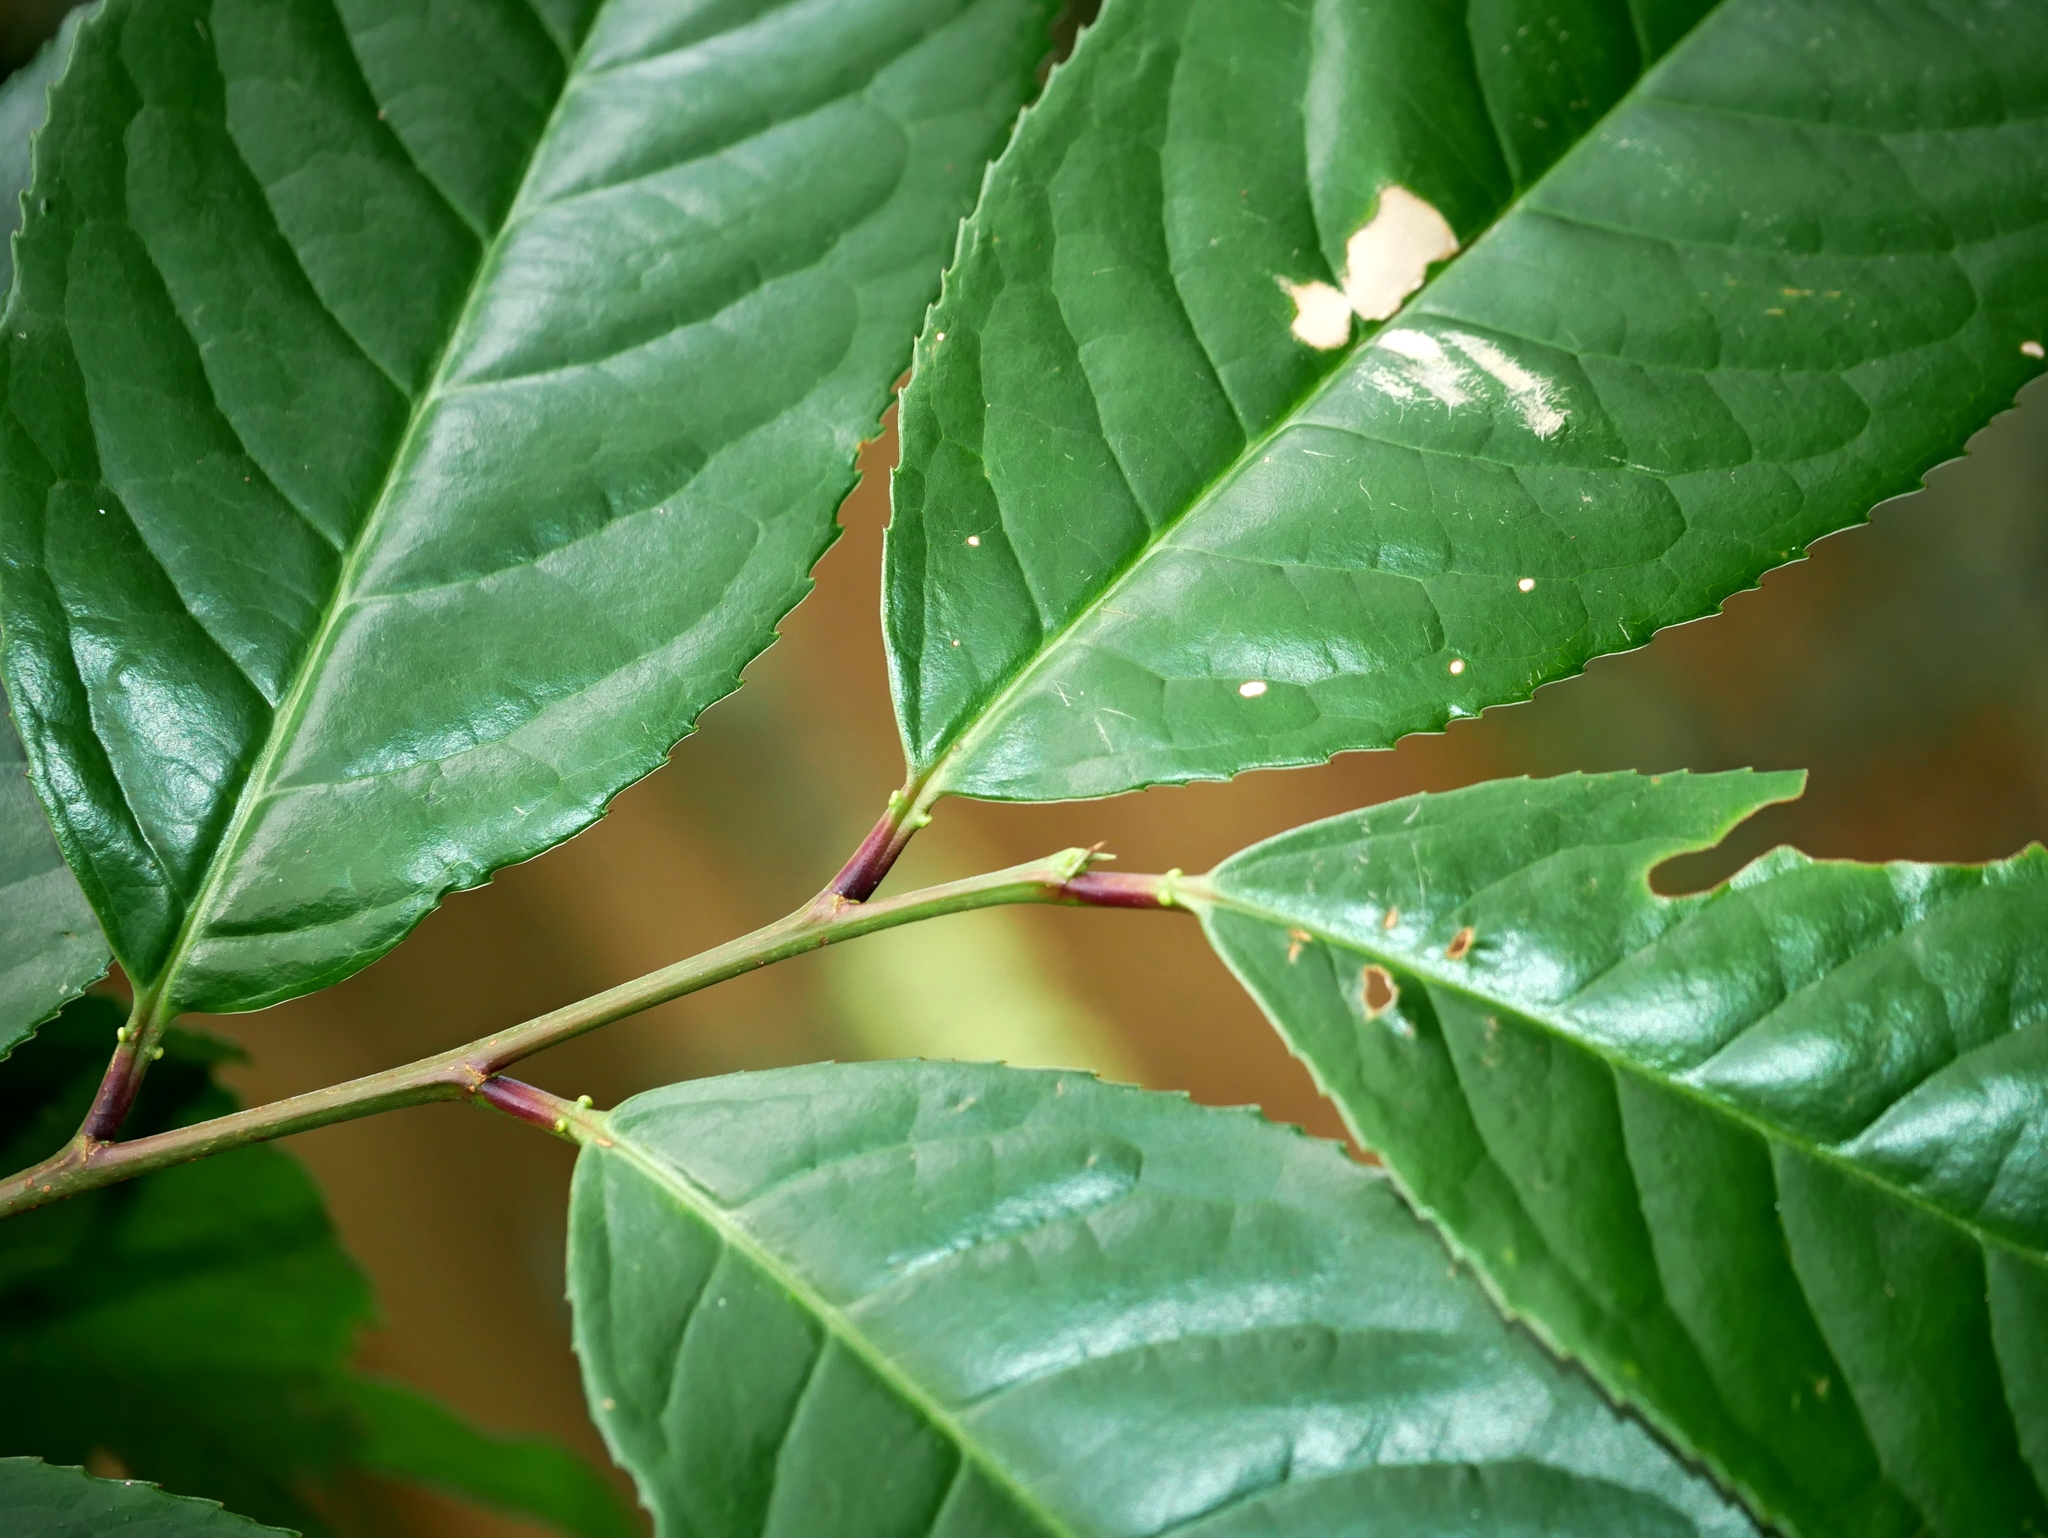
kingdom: Plantae
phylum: Tracheophyta
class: Magnoliopsida
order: Rosales
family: Rosaceae
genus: Prunus
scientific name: Prunus zippeliana
